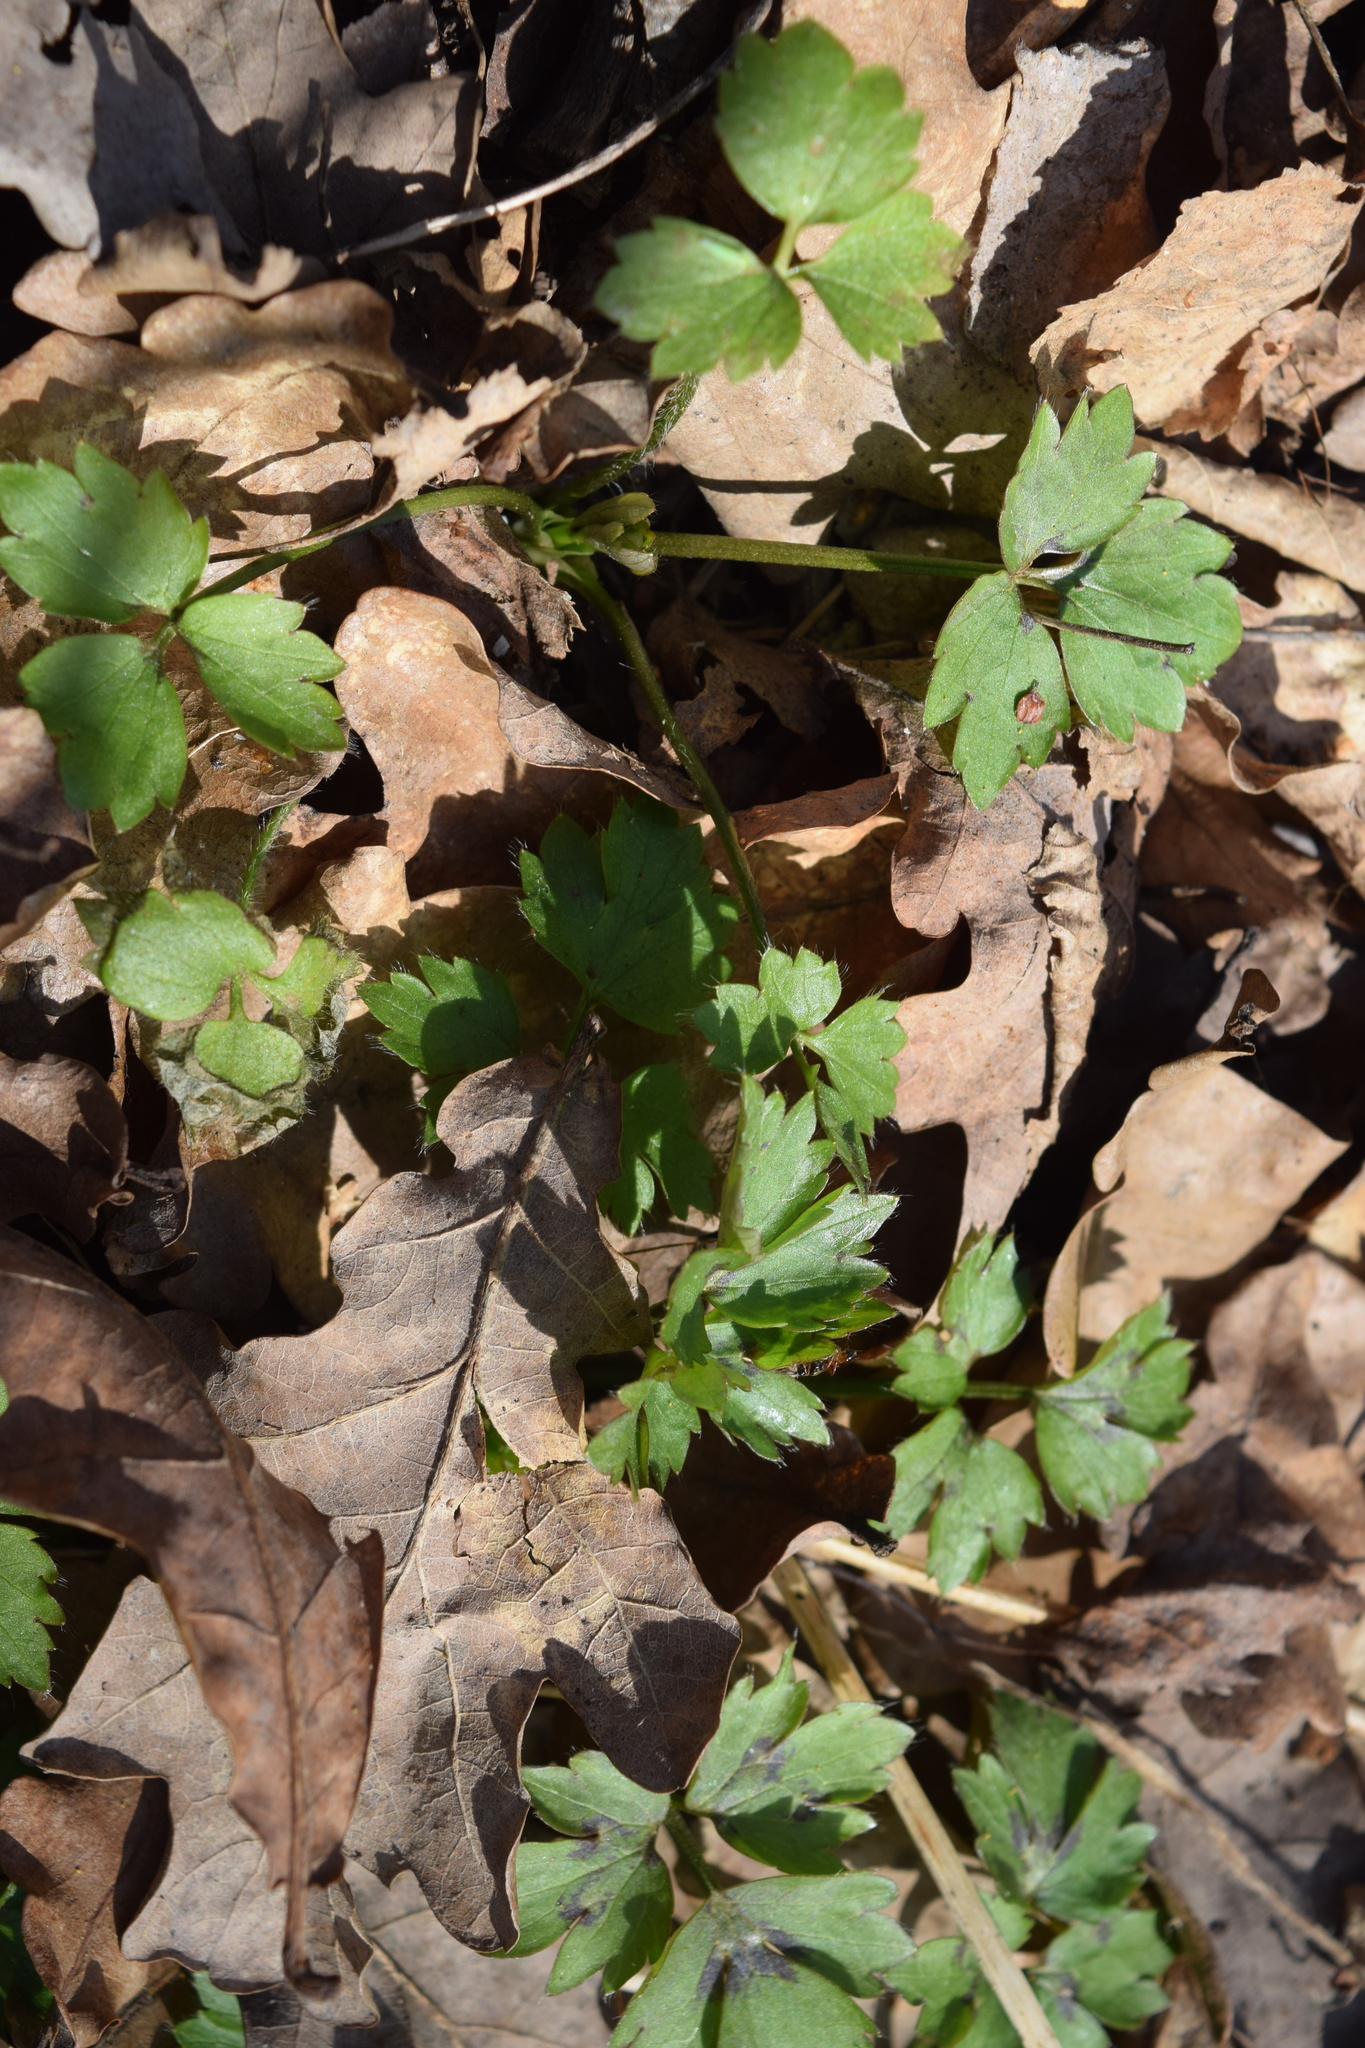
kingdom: Plantae
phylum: Tracheophyta
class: Magnoliopsida
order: Ranunculales
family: Ranunculaceae
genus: Ranunculus
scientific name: Ranunculus repens
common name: Creeping buttercup
